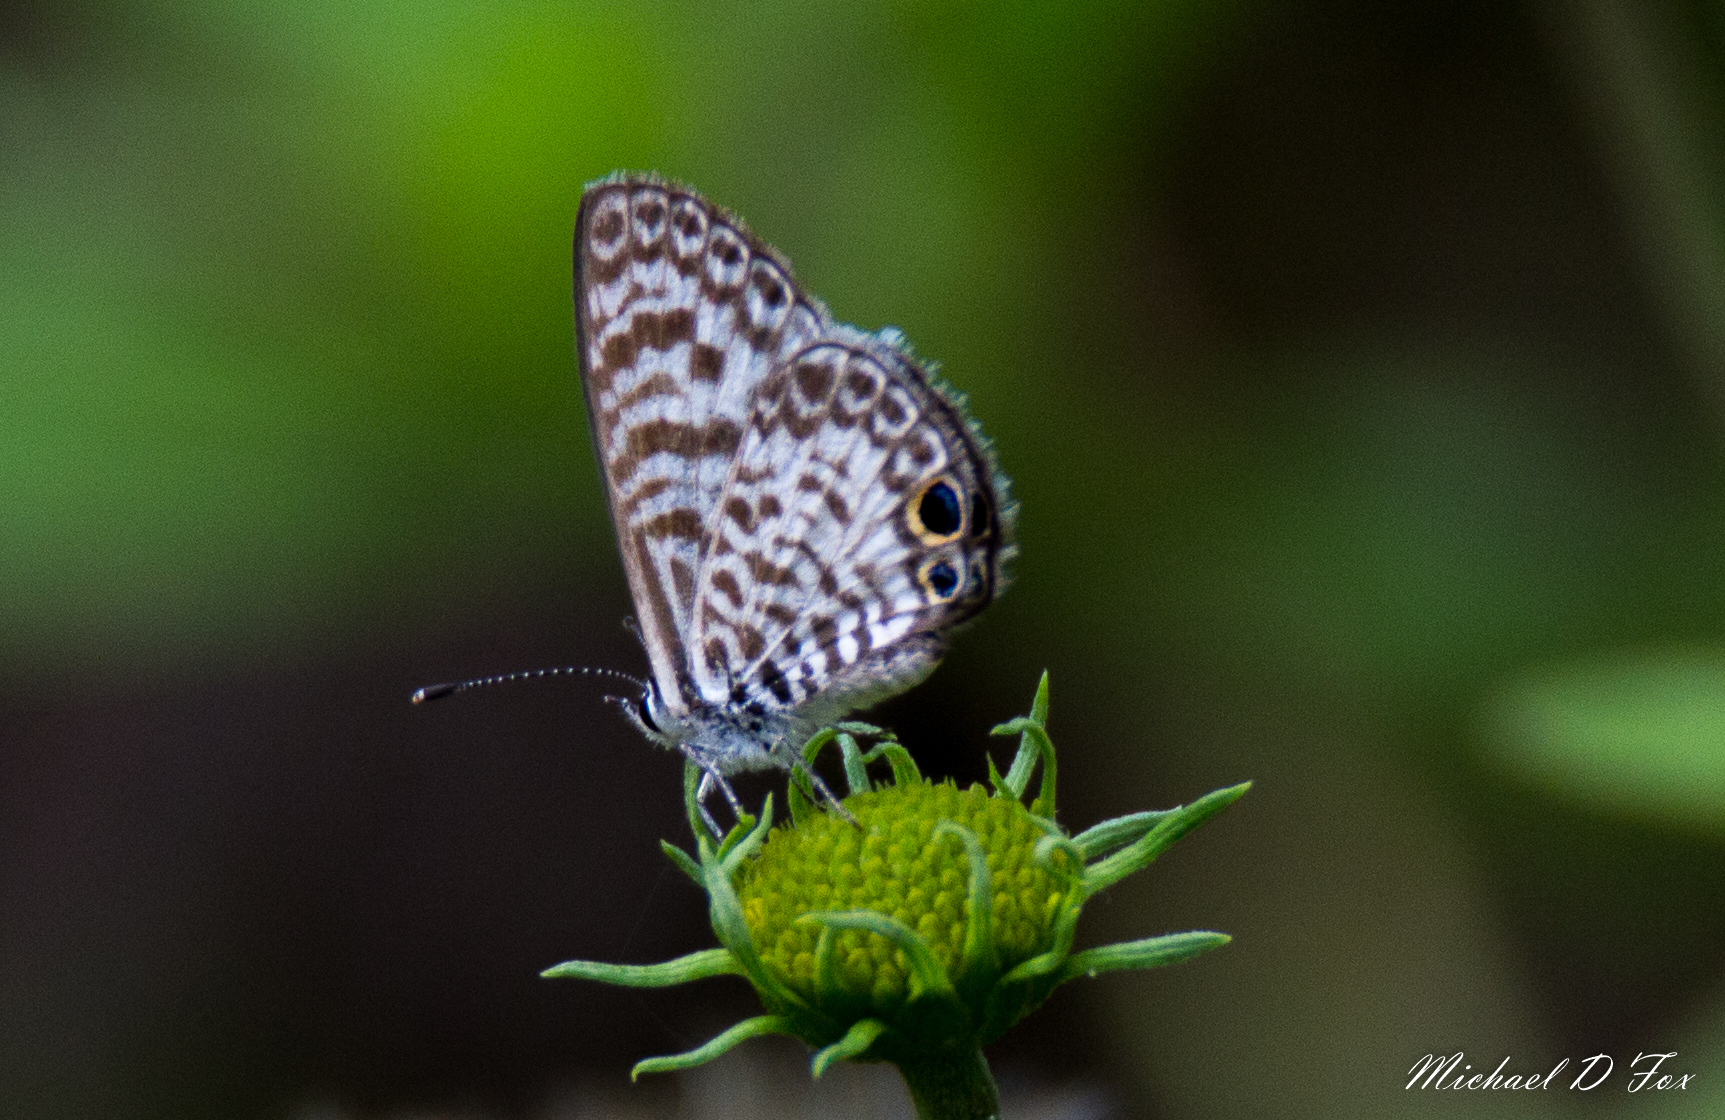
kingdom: Animalia
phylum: Arthropoda
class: Insecta
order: Lepidoptera
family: Lycaenidae
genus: Leptotes
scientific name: Leptotes cassius
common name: Cassius blue
